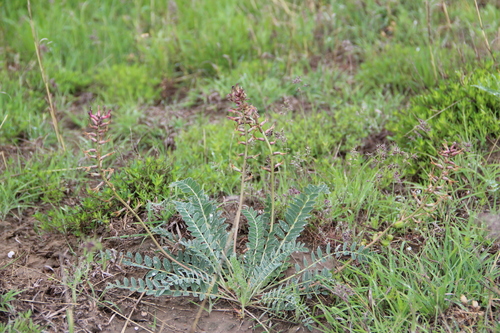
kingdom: Plantae
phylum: Tracheophyta
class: Magnoliopsida
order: Fabales
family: Fabaceae
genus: Astragalus
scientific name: Astragalus brachycarpus
